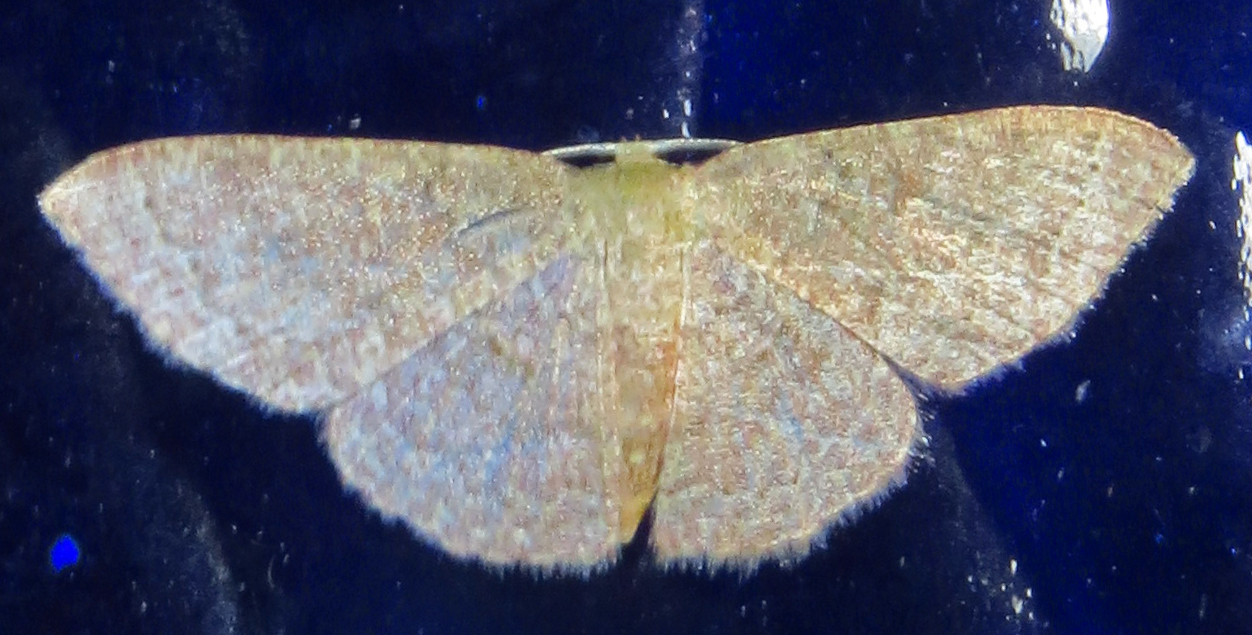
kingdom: Animalia
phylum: Arthropoda
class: Insecta
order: Lepidoptera
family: Geometridae
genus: Pleuroprucha
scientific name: Pleuroprucha insulsaria
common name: Common tan wave
